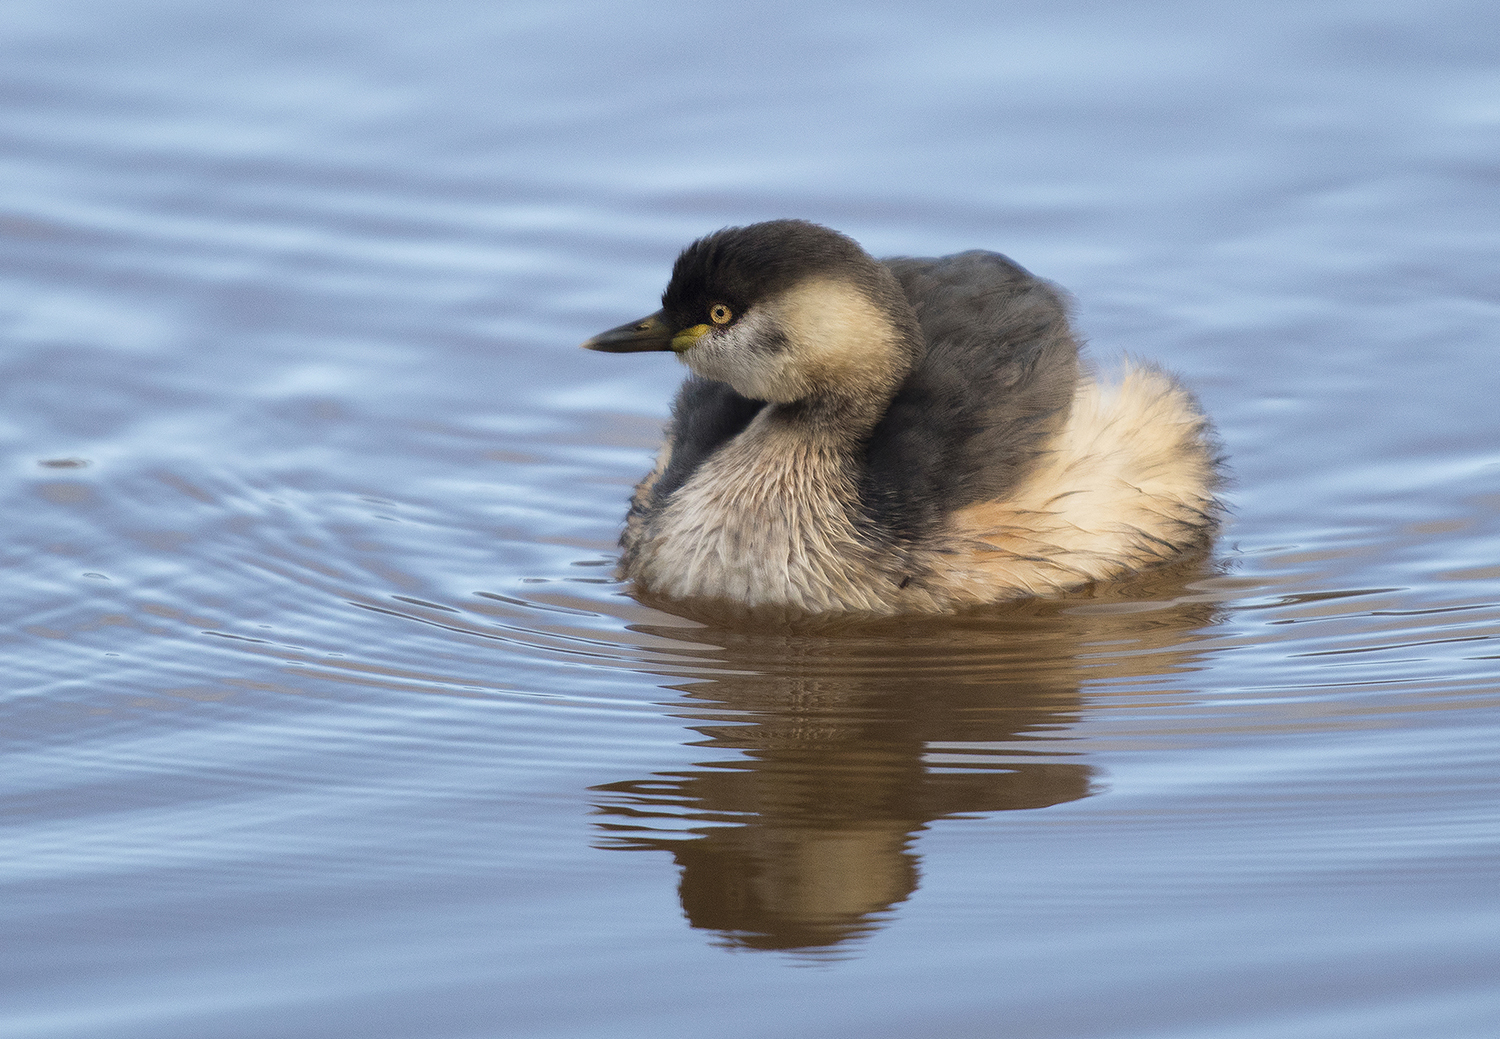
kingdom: Animalia
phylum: Chordata
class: Aves
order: Podicipediformes
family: Podicipedidae
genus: Tachybaptus
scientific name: Tachybaptus novaehollandiae
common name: Australasian grebe
